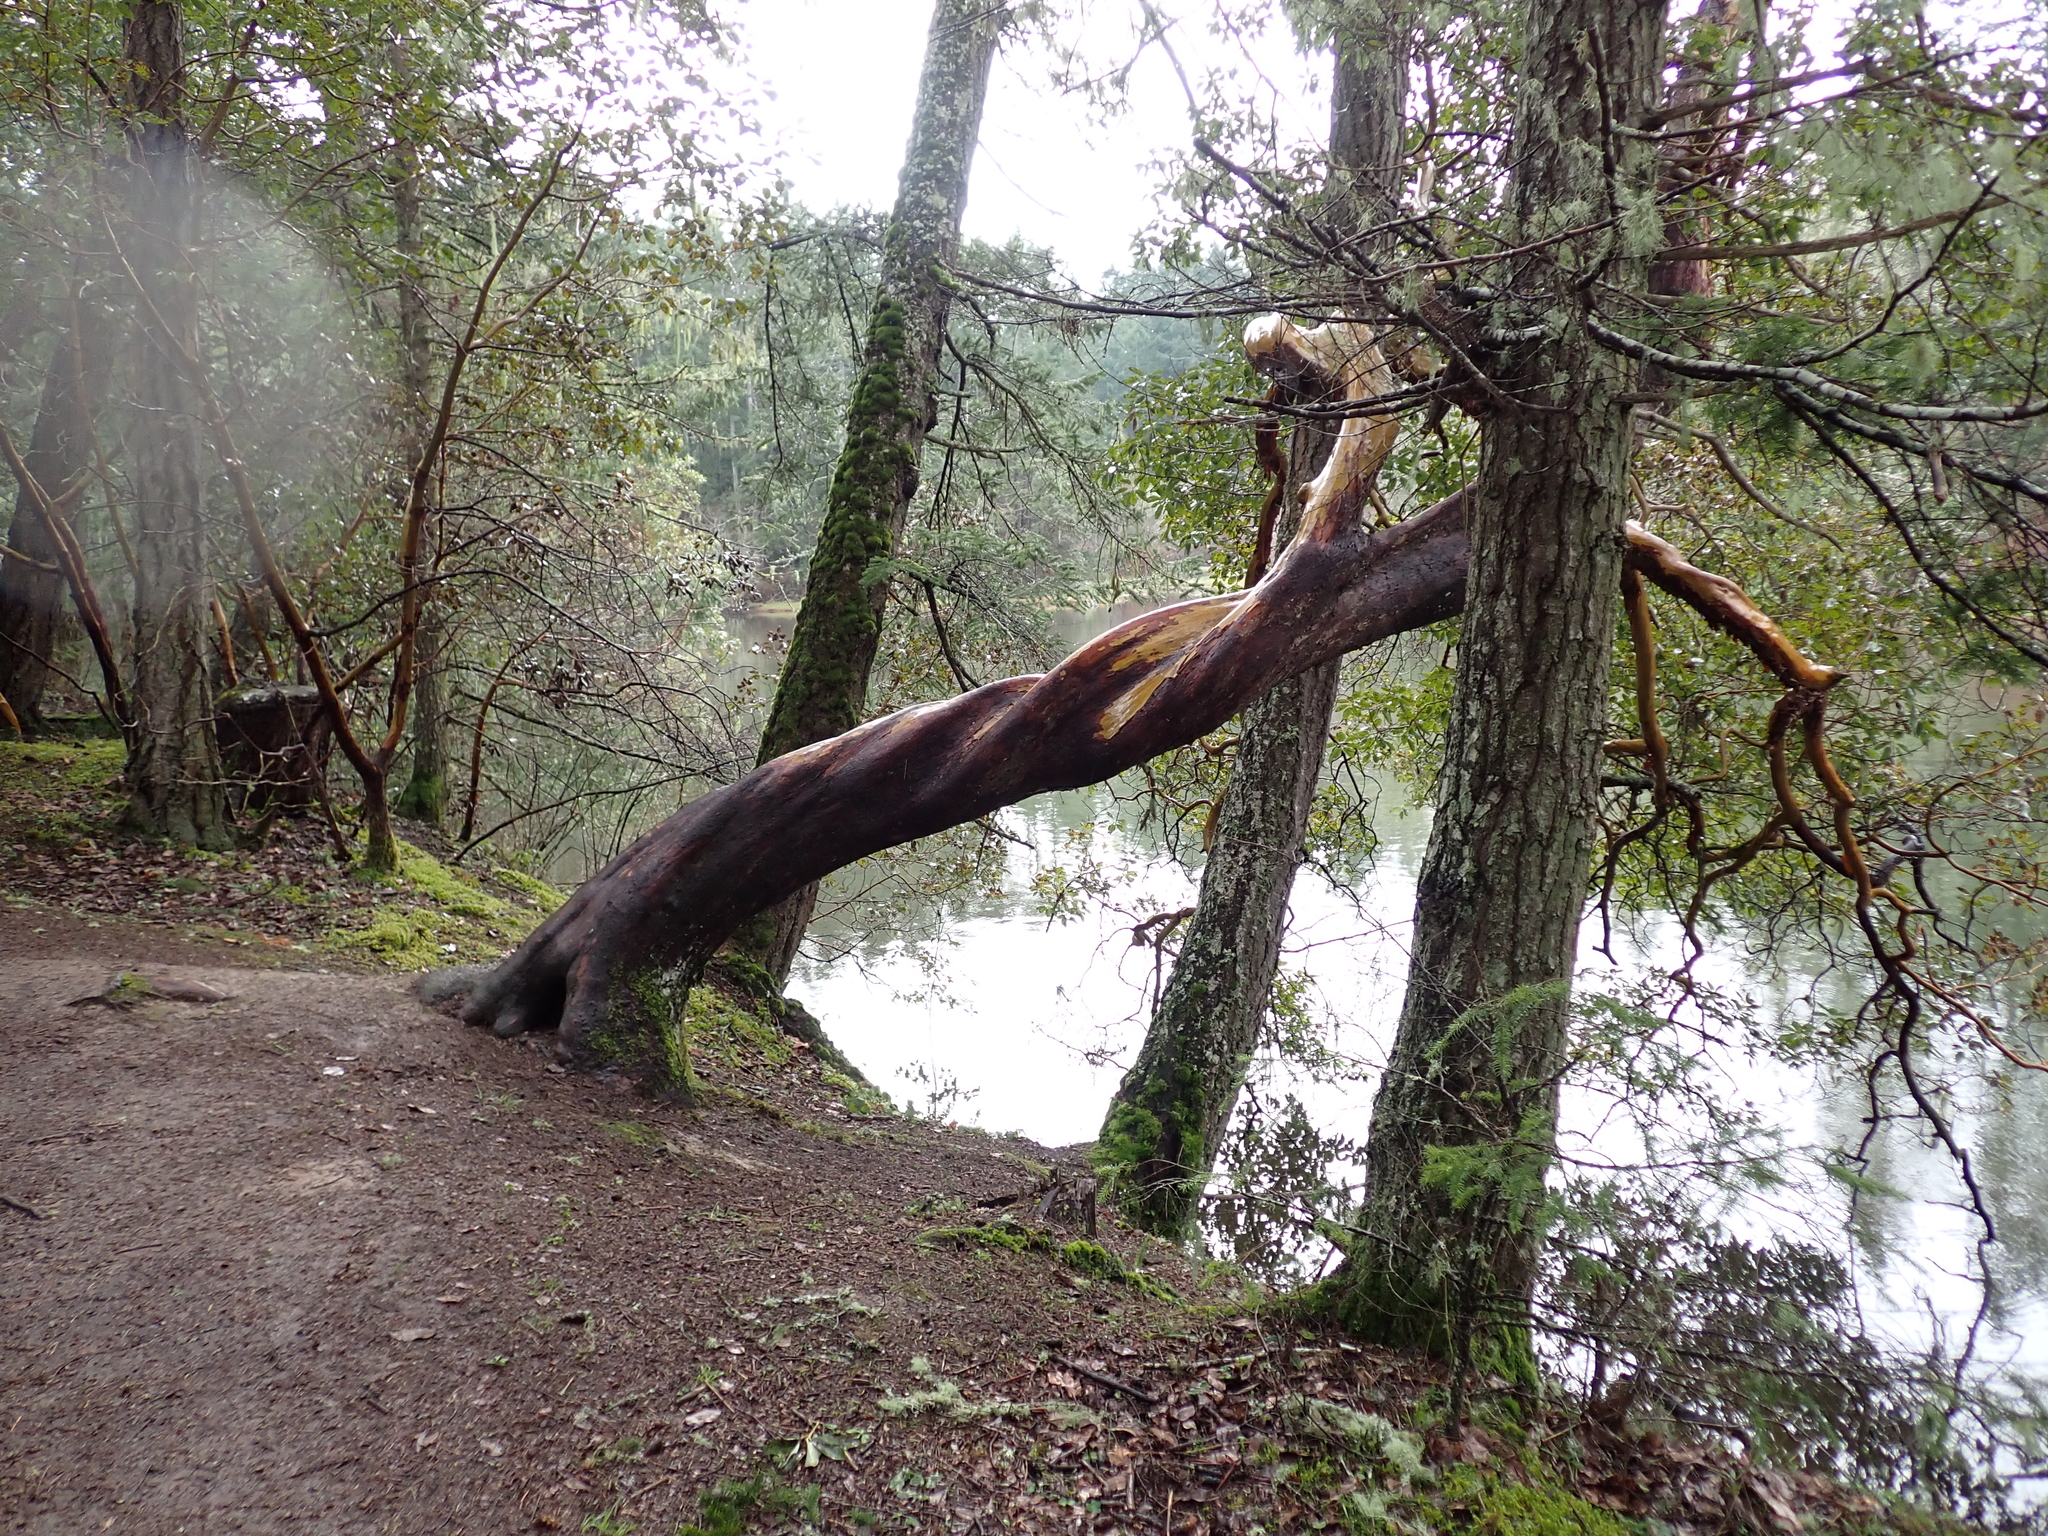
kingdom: Plantae
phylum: Tracheophyta
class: Magnoliopsida
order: Ericales
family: Ericaceae
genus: Arbutus
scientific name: Arbutus menziesii
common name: Pacific madrone
